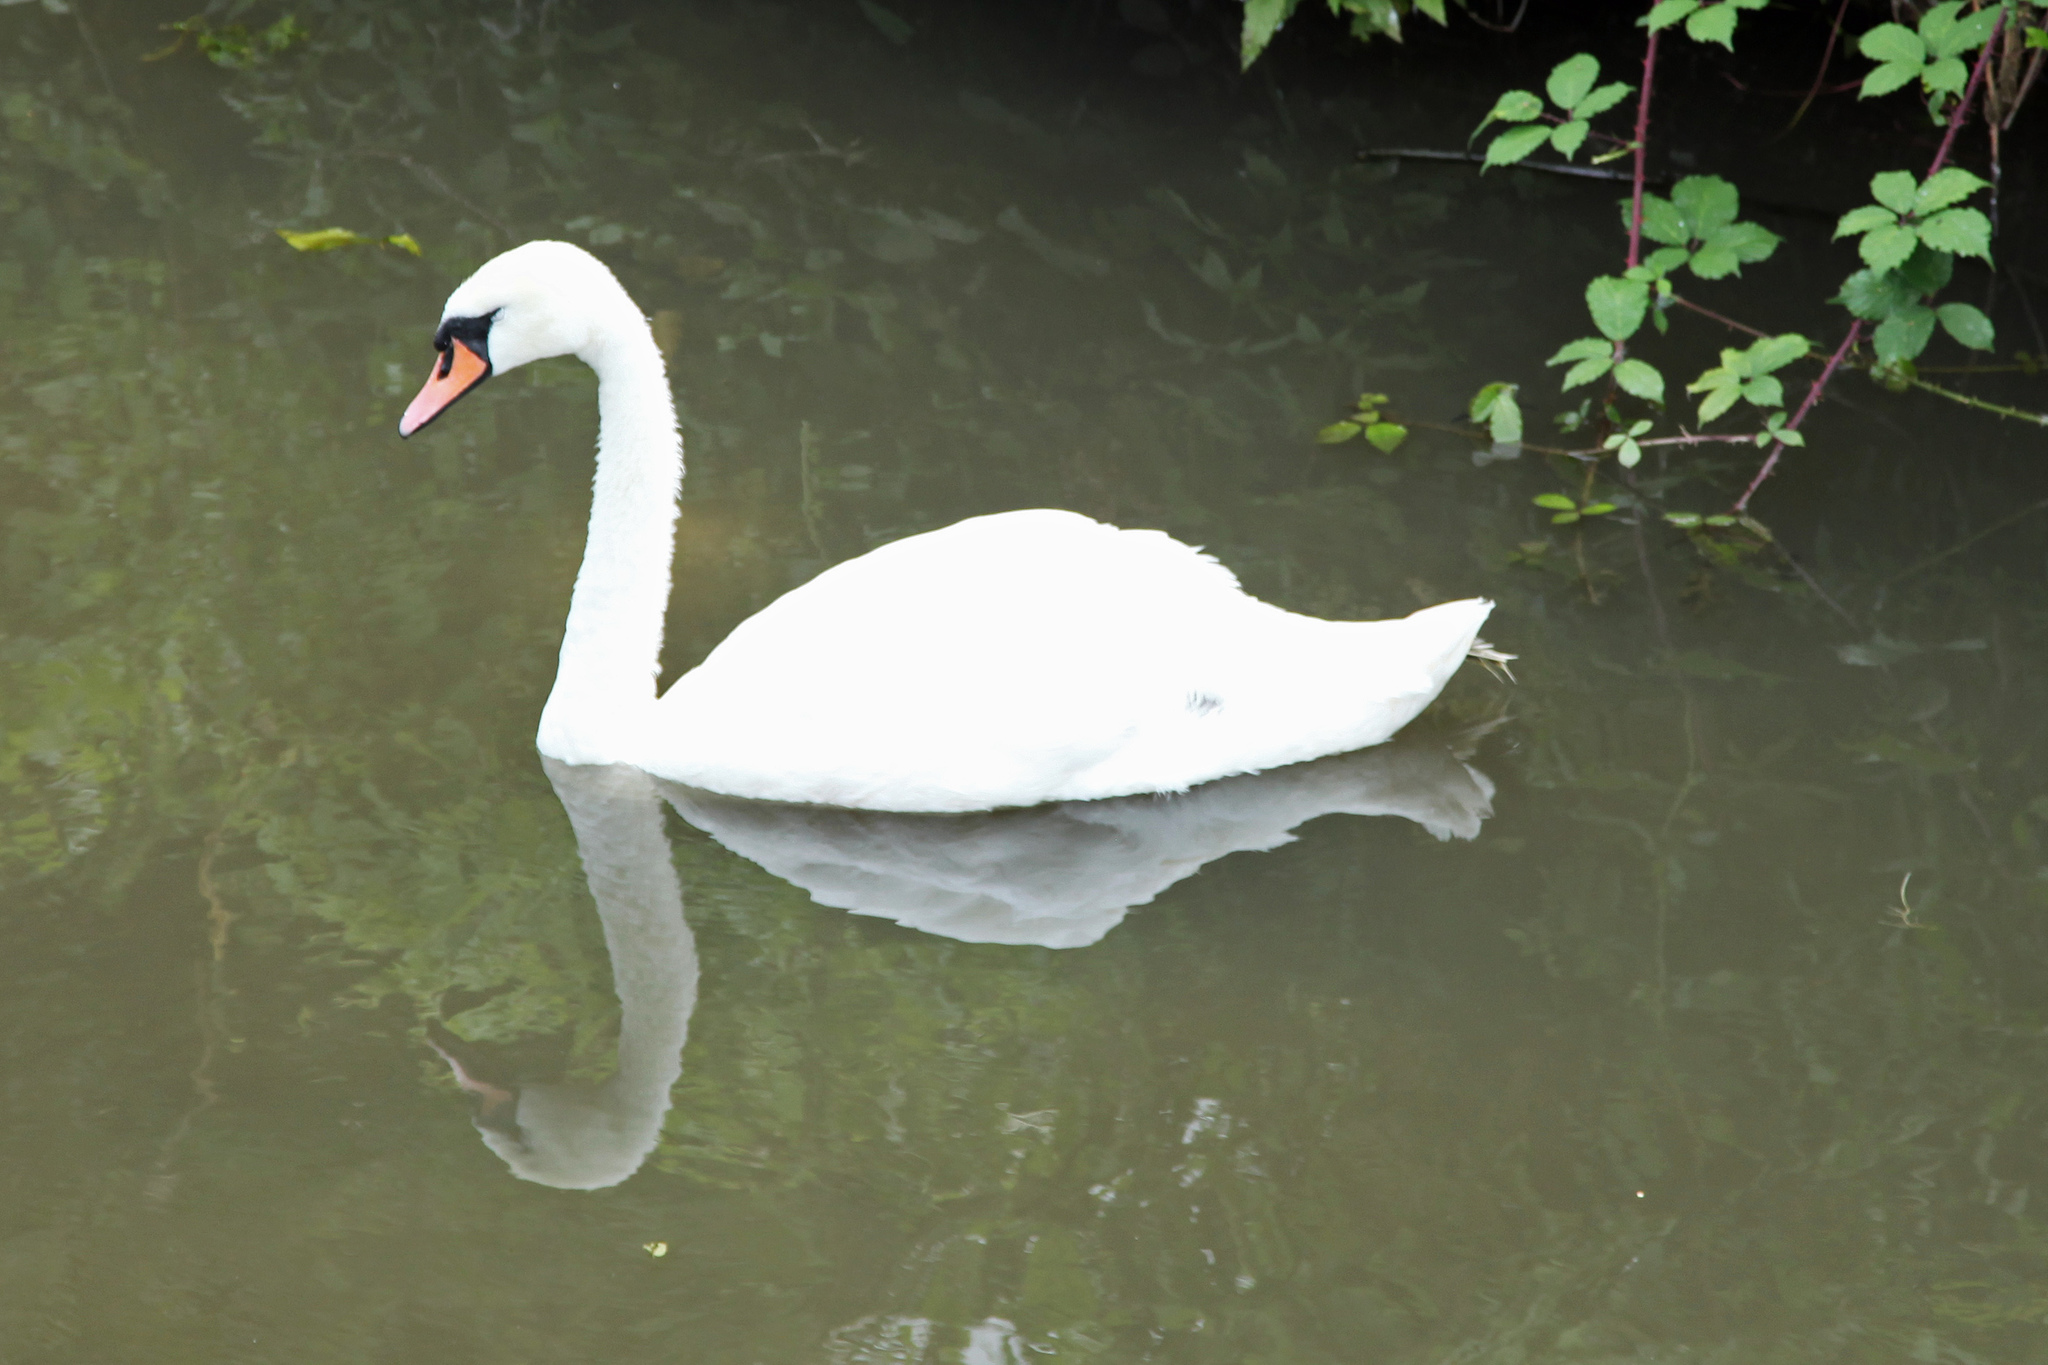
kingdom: Animalia
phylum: Chordata
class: Aves
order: Anseriformes
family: Anatidae
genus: Cygnus
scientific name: Cygnus olor
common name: Mute swan
